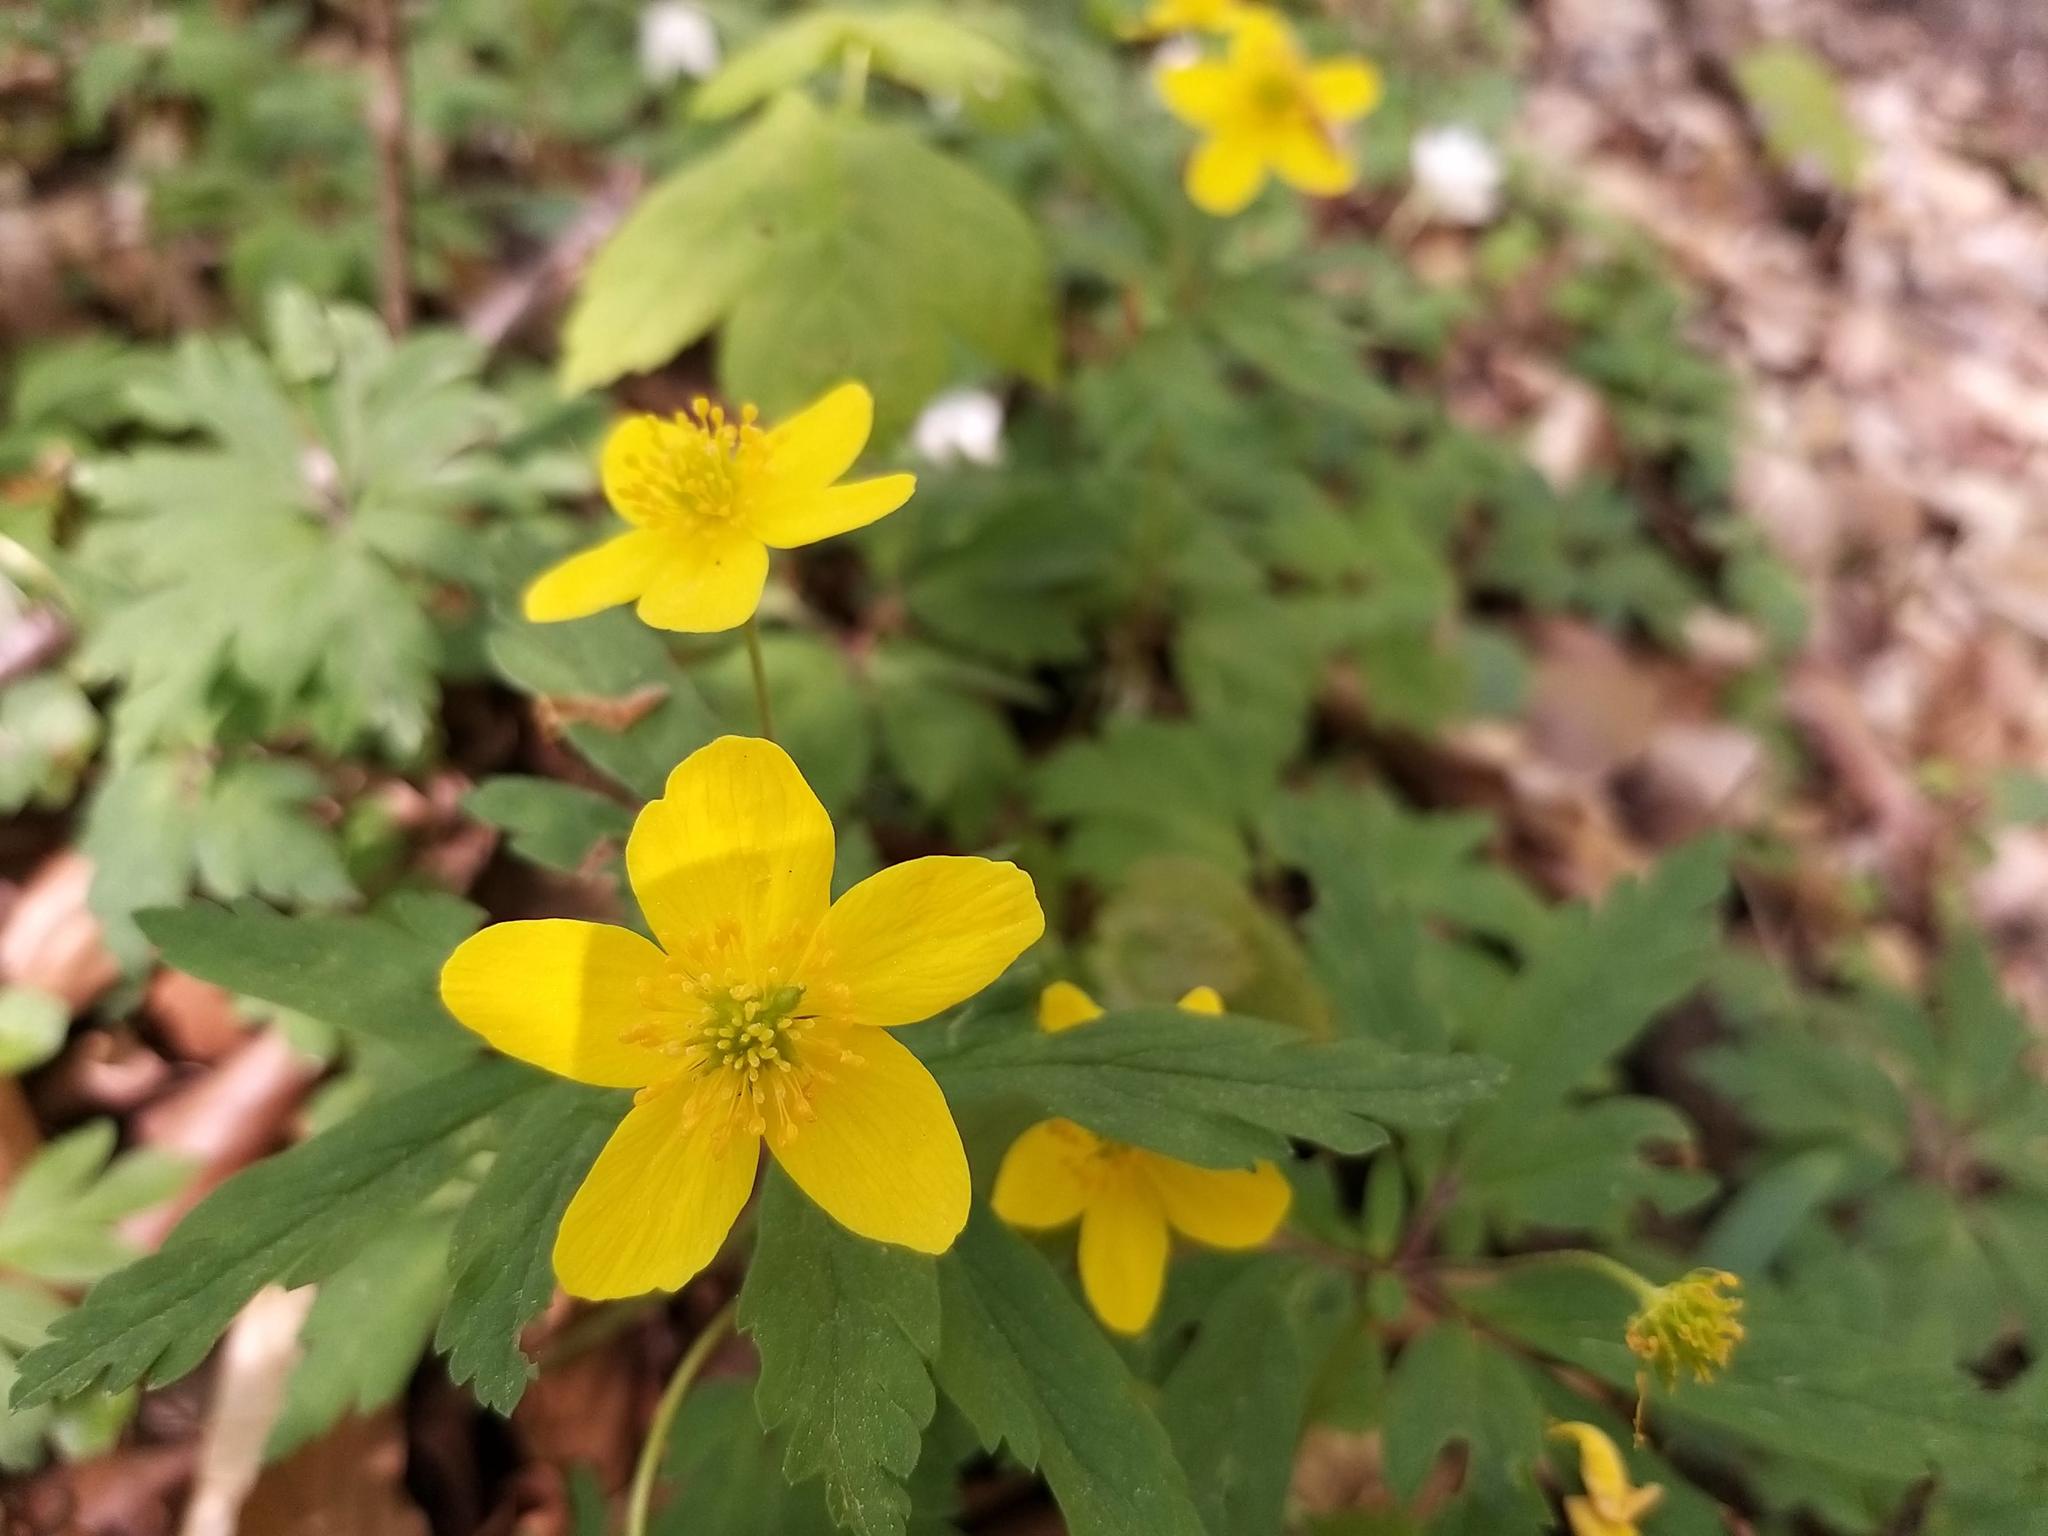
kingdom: Plantae
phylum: Tracheophyta
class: Magnoliopsida
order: Ranunculales
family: Ranunculaceae
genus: Anemone
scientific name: Anemone ranunculoides
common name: Yellow anemone
